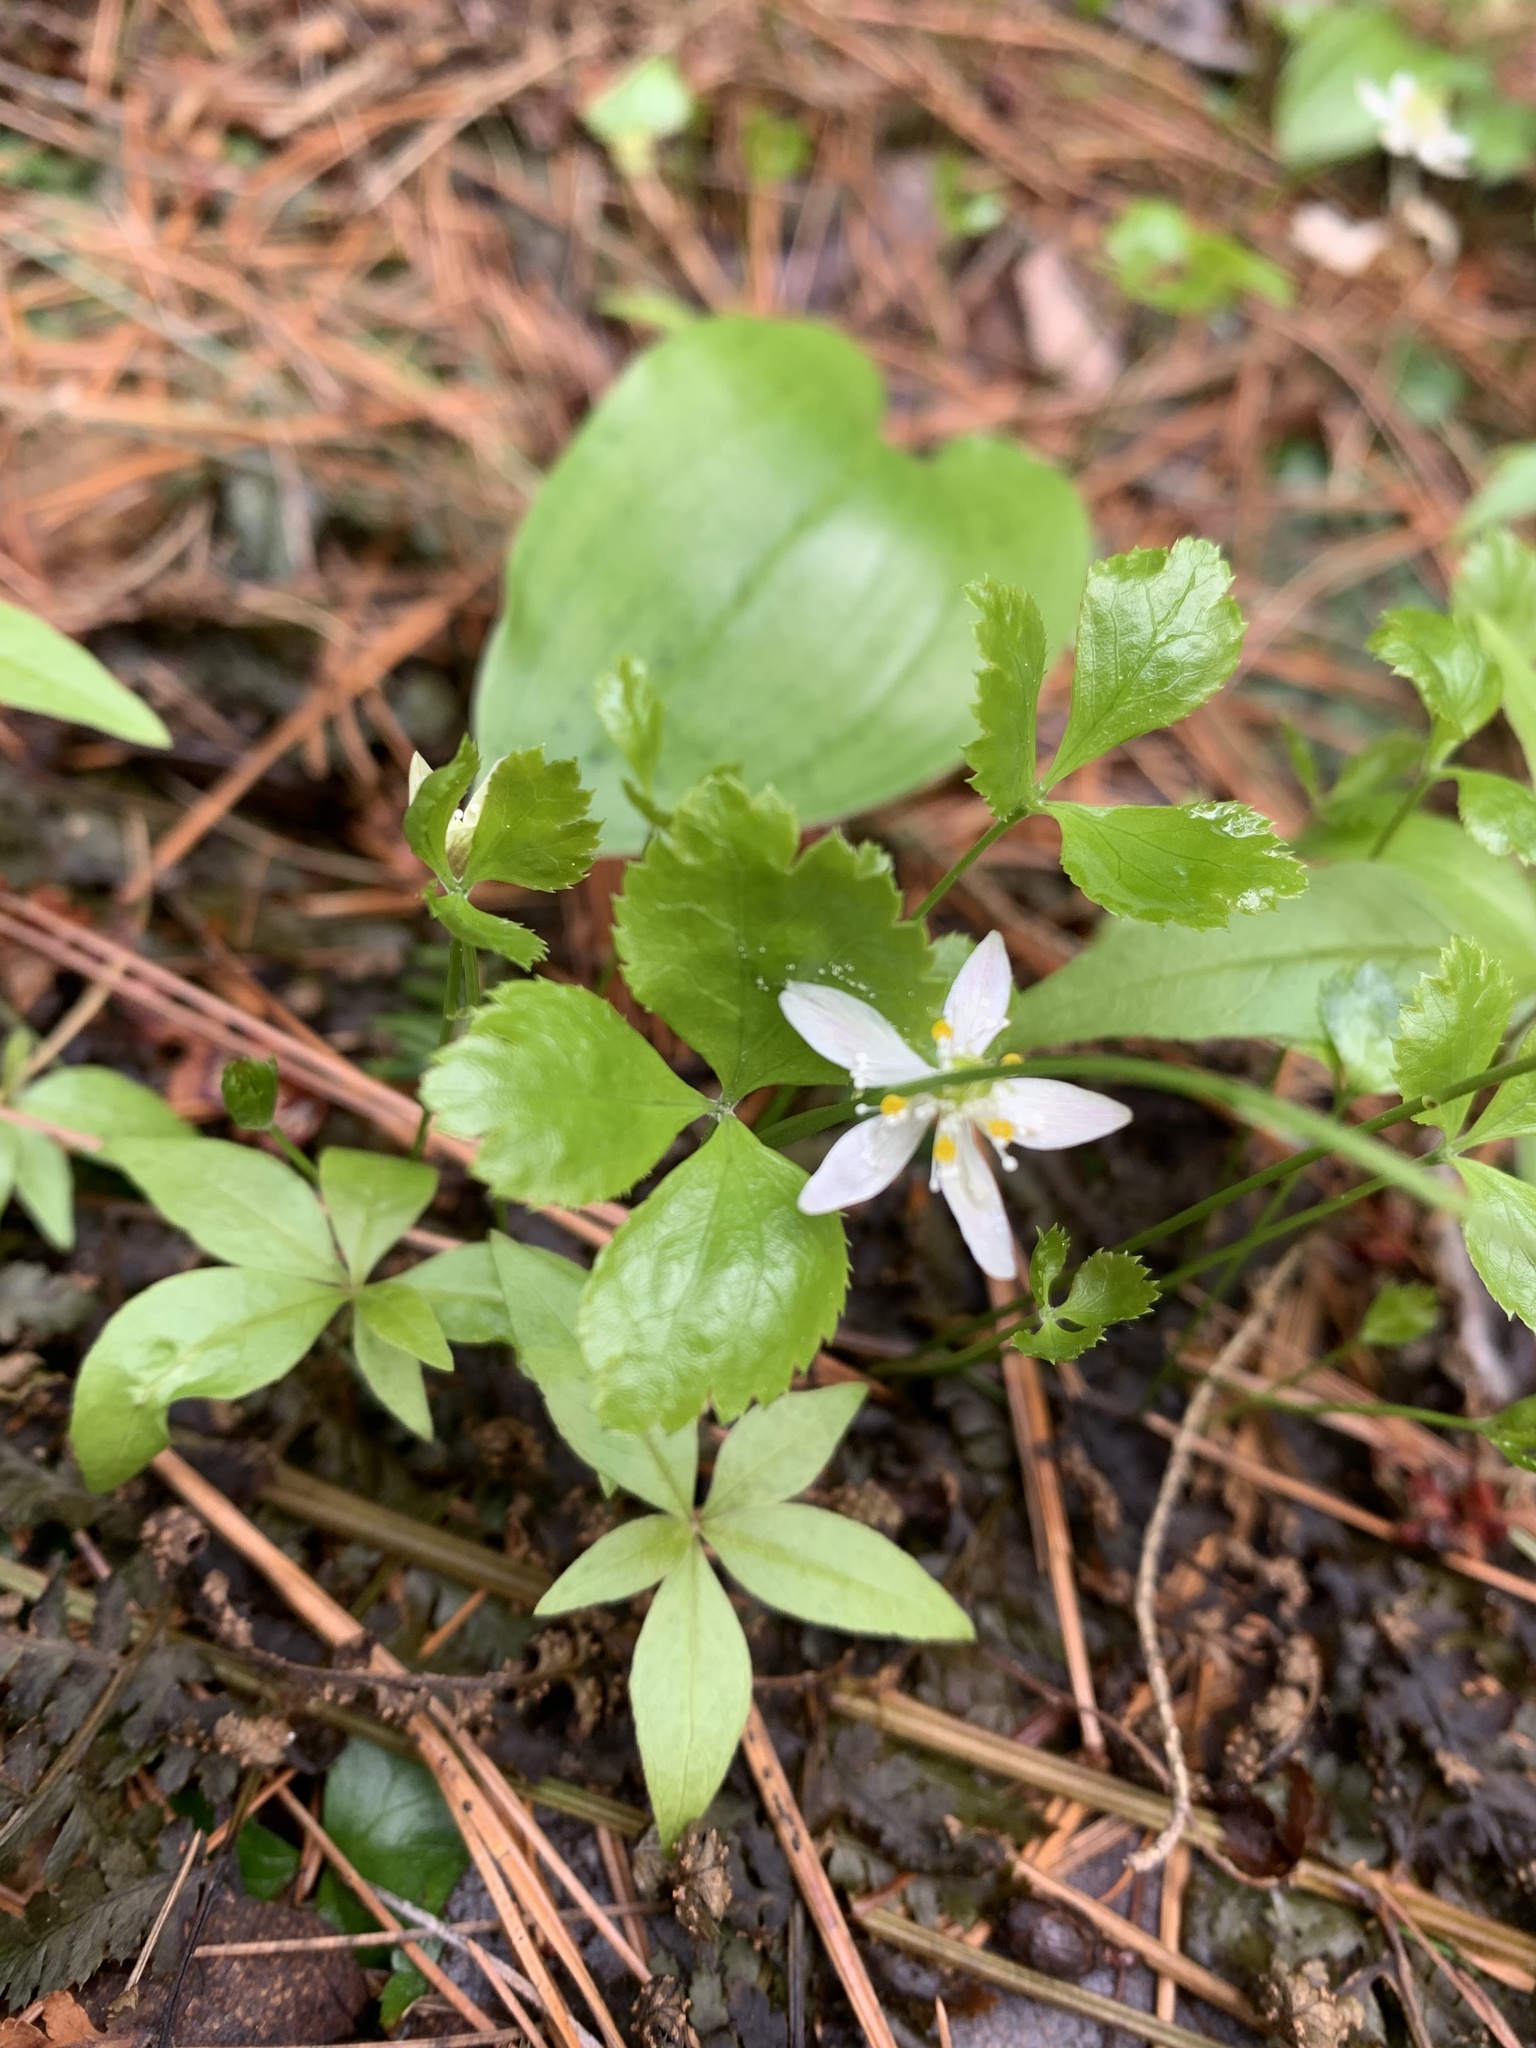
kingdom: Plantae
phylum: Tracheophyta
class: Magnoliopsida
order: Ranunculales
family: Ranunculaceae
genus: Coptis
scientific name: Coptis trifolia
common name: Canker-root
